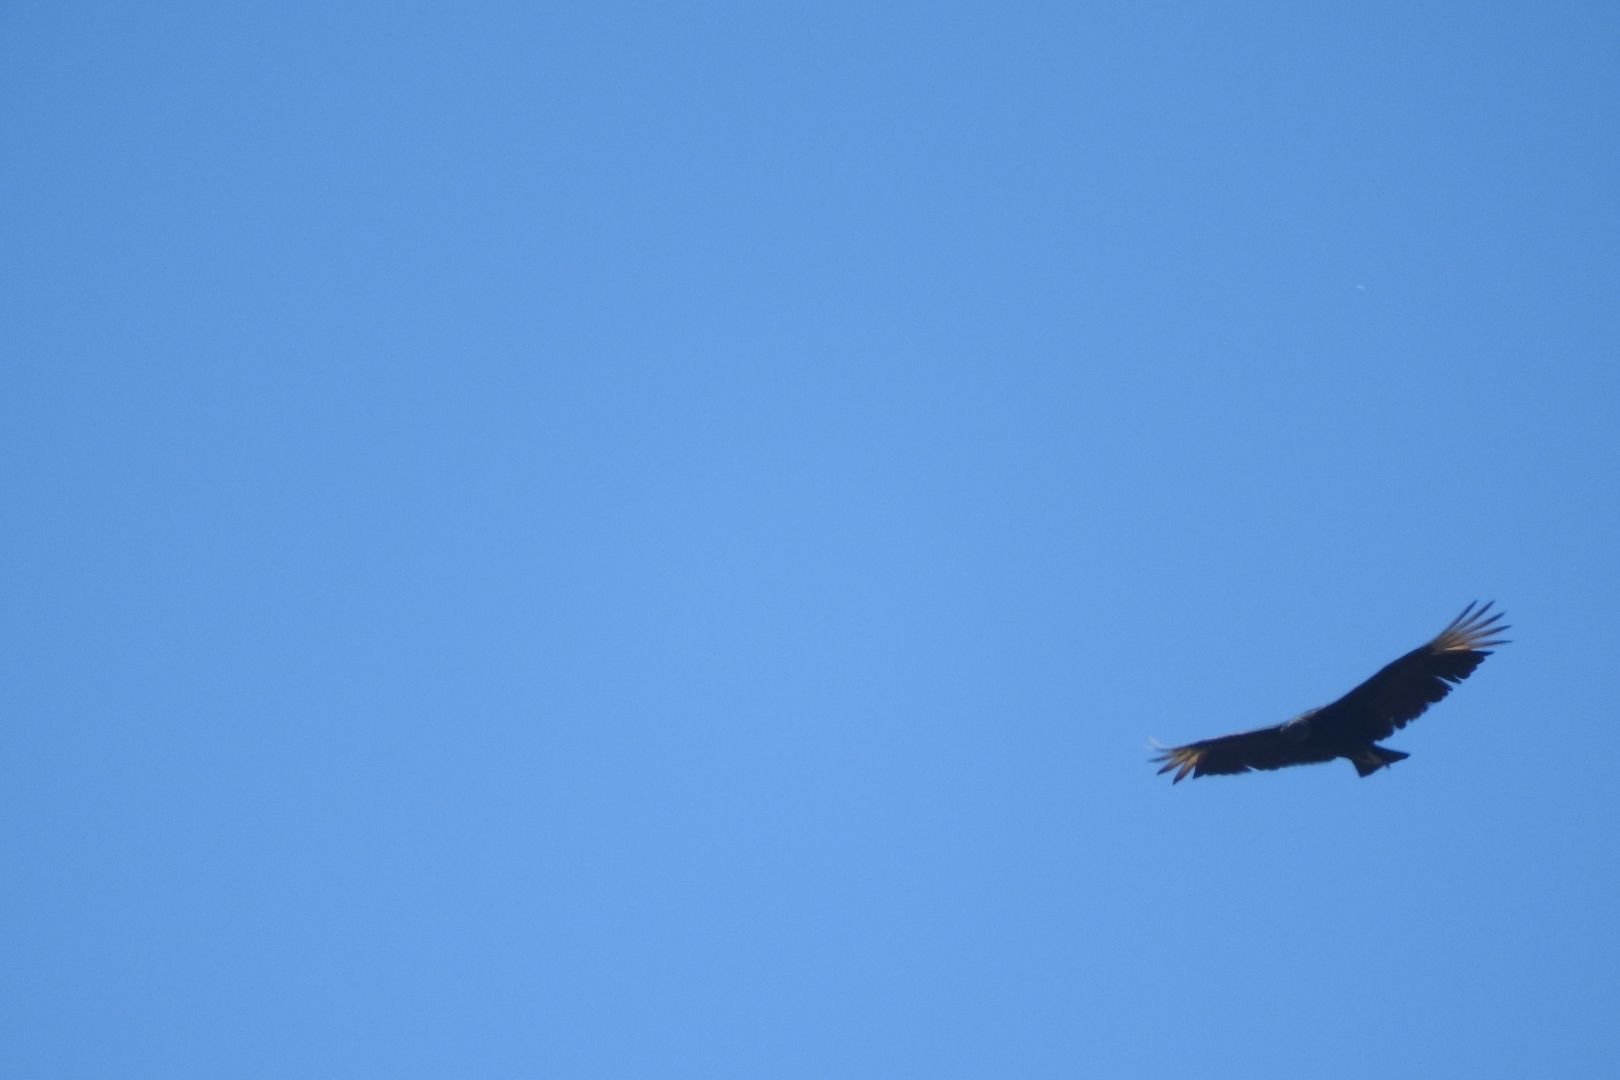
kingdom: Animalia
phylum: Chordata
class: Aves
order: Accipitriformes
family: Cathartidae
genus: Coragyps
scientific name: Coragyps atratus
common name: Black vulture
